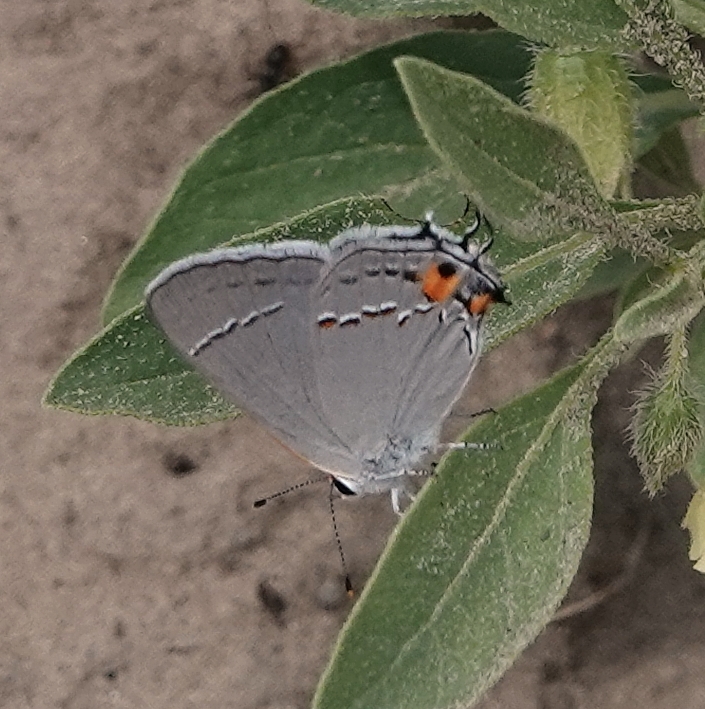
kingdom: Animalia
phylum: Arthropoda
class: Insecta
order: Lepidoptera
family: Lycaenidae
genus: Strymon
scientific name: Strymon melinus
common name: Gray hairstreak
